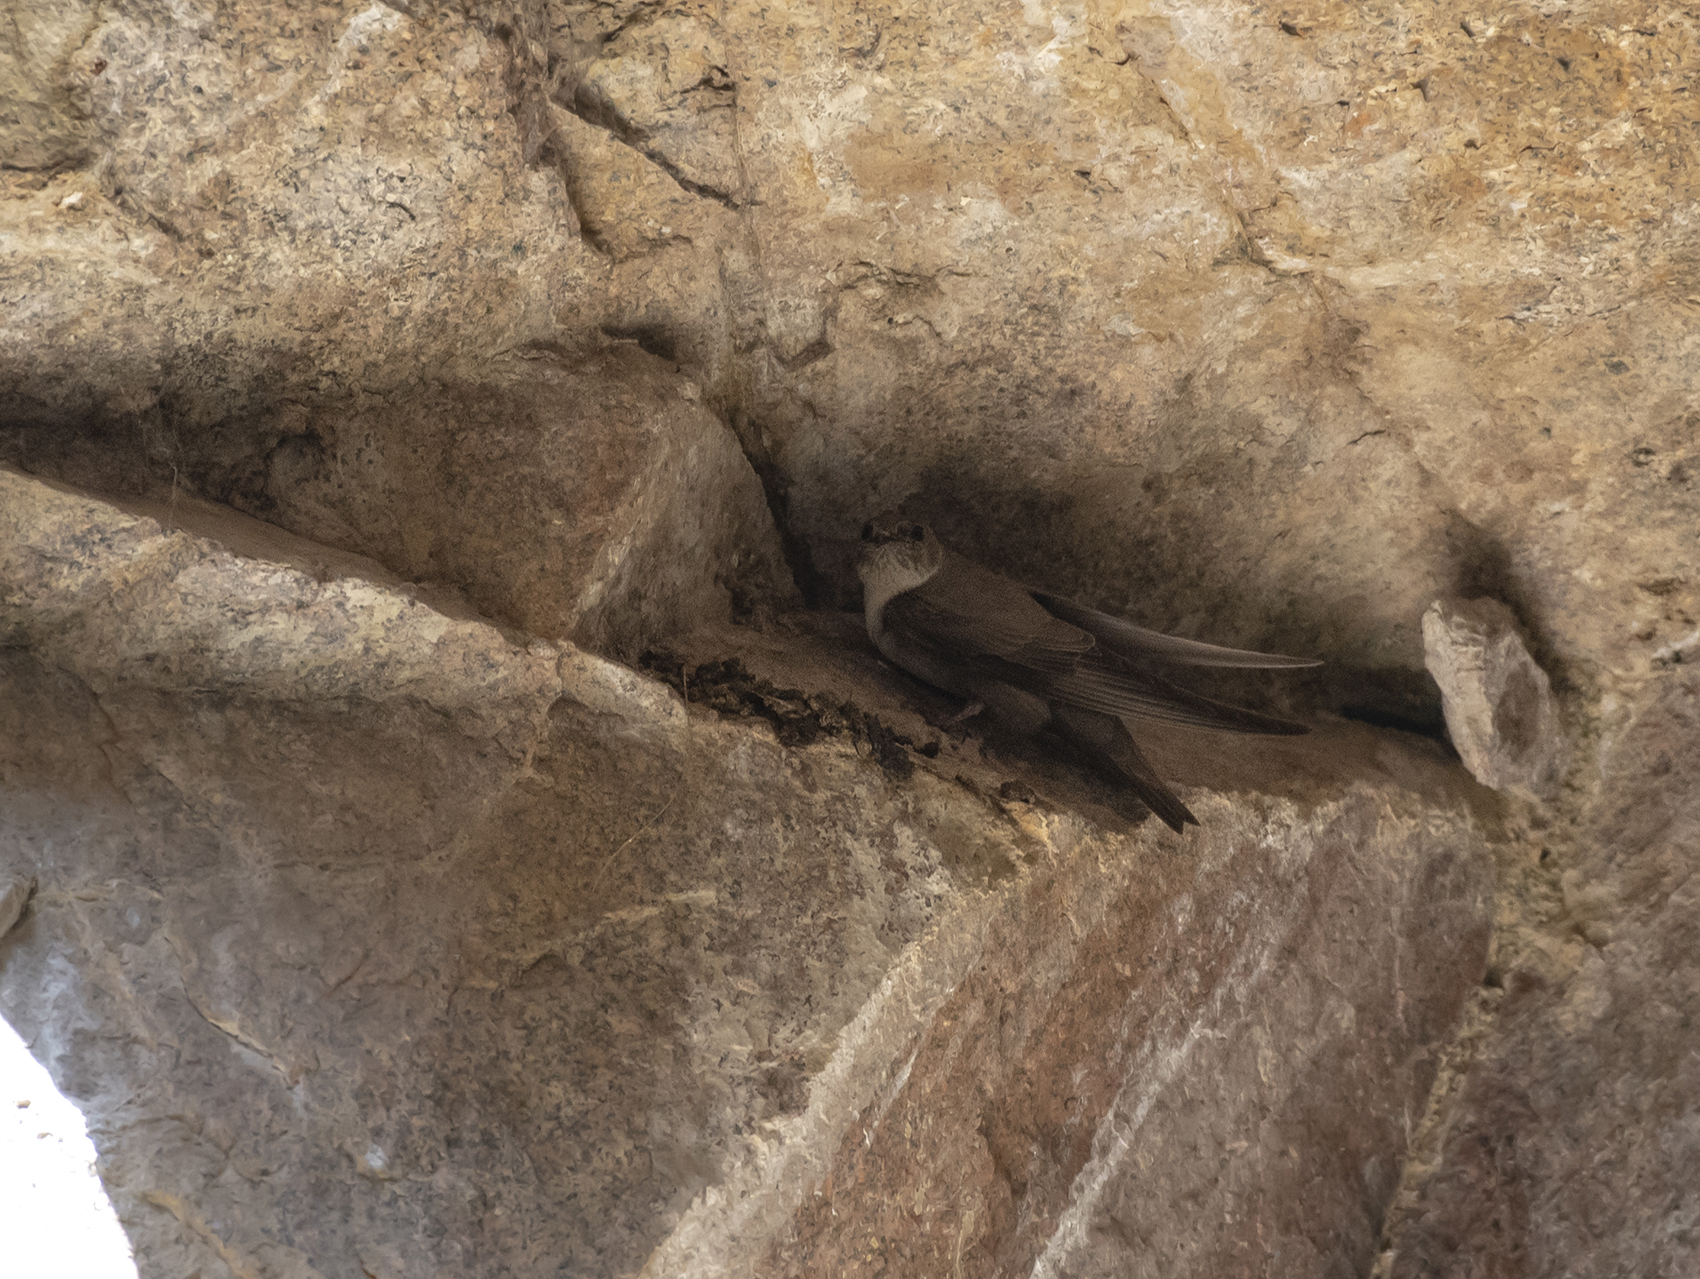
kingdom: Animalia
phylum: Chordata
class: Aves
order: Passeriformes
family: Hirundinidae
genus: Ptyonoprogne
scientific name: Ptyonoprogne rupestris
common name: Eurasian crag martin
